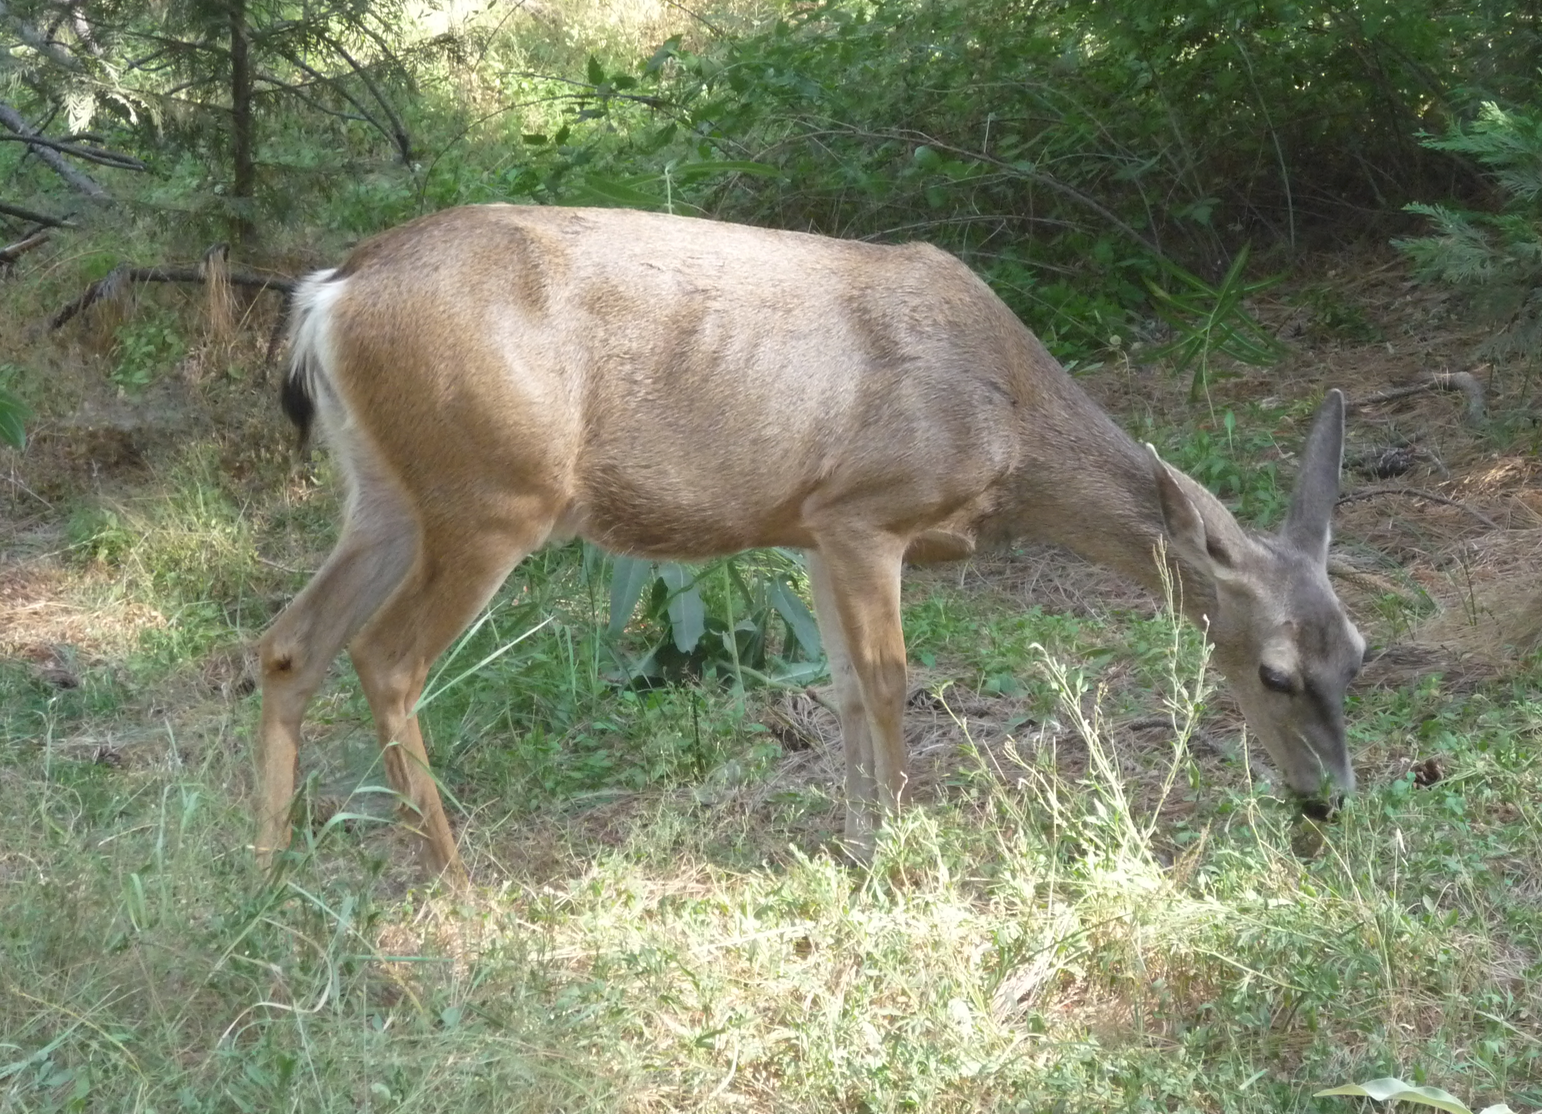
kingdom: Animalia
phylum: Chordata
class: Mammalia
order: Artiodactyla
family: Cervidae
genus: Odocoileus
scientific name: Odocoileus hemionus
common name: Mule deer
